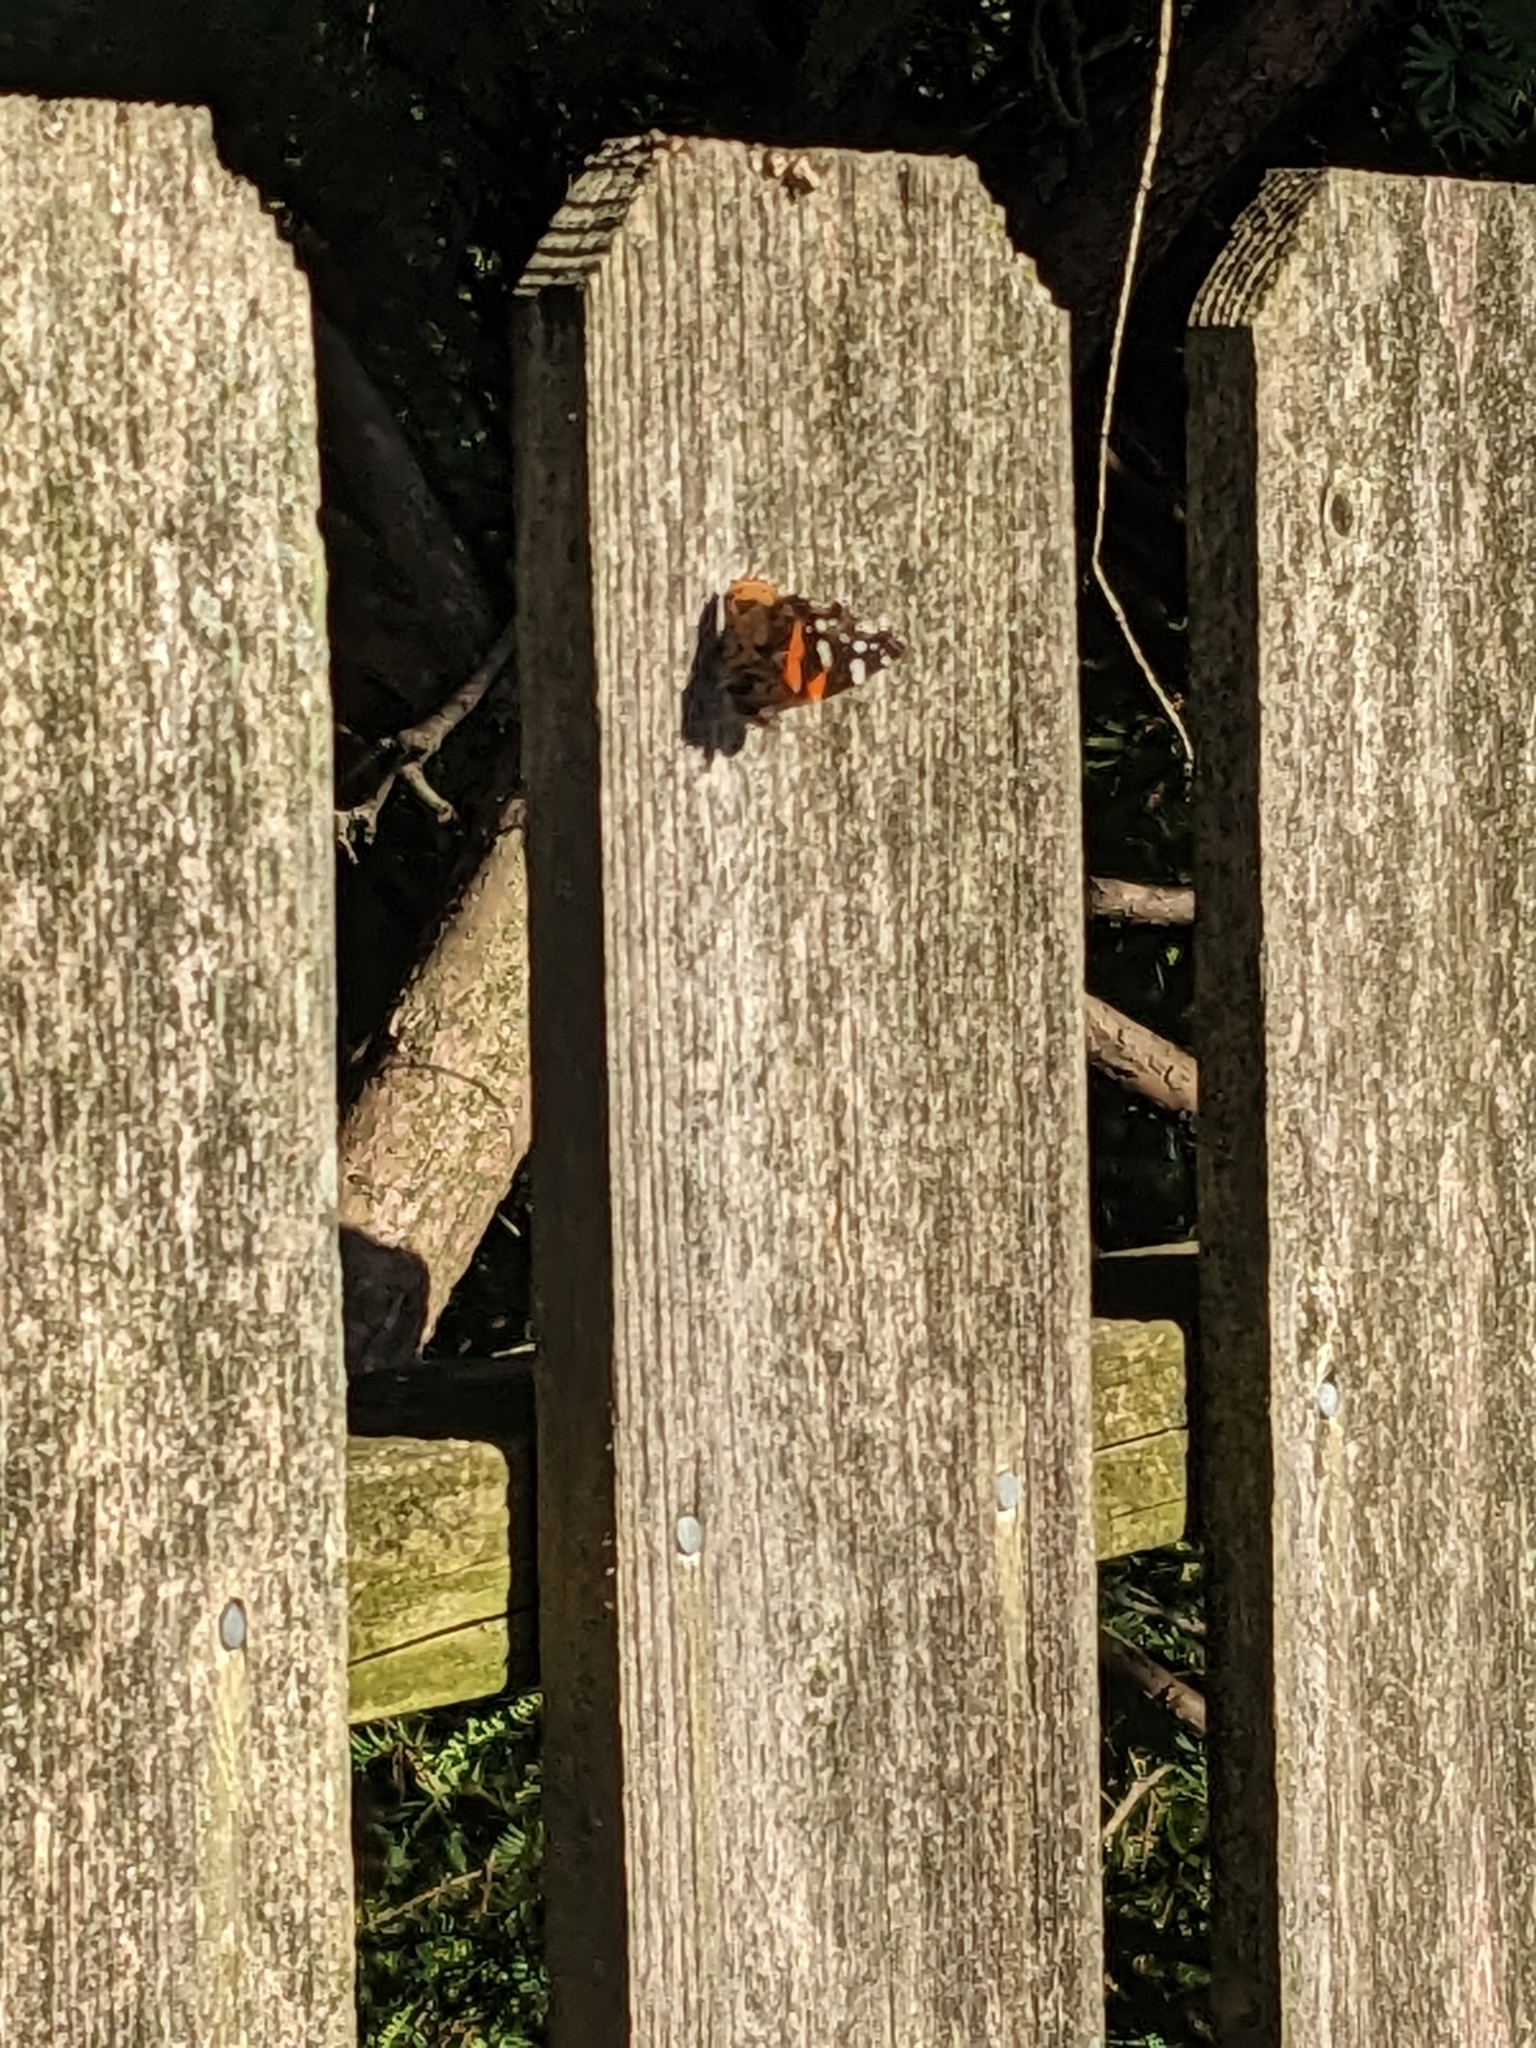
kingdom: Animalia
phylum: Arthropoda
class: Insecta
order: Lepidoptera
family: Nymphalidae
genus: Vanessa
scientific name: Vanessa atalanta
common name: Red admiral
